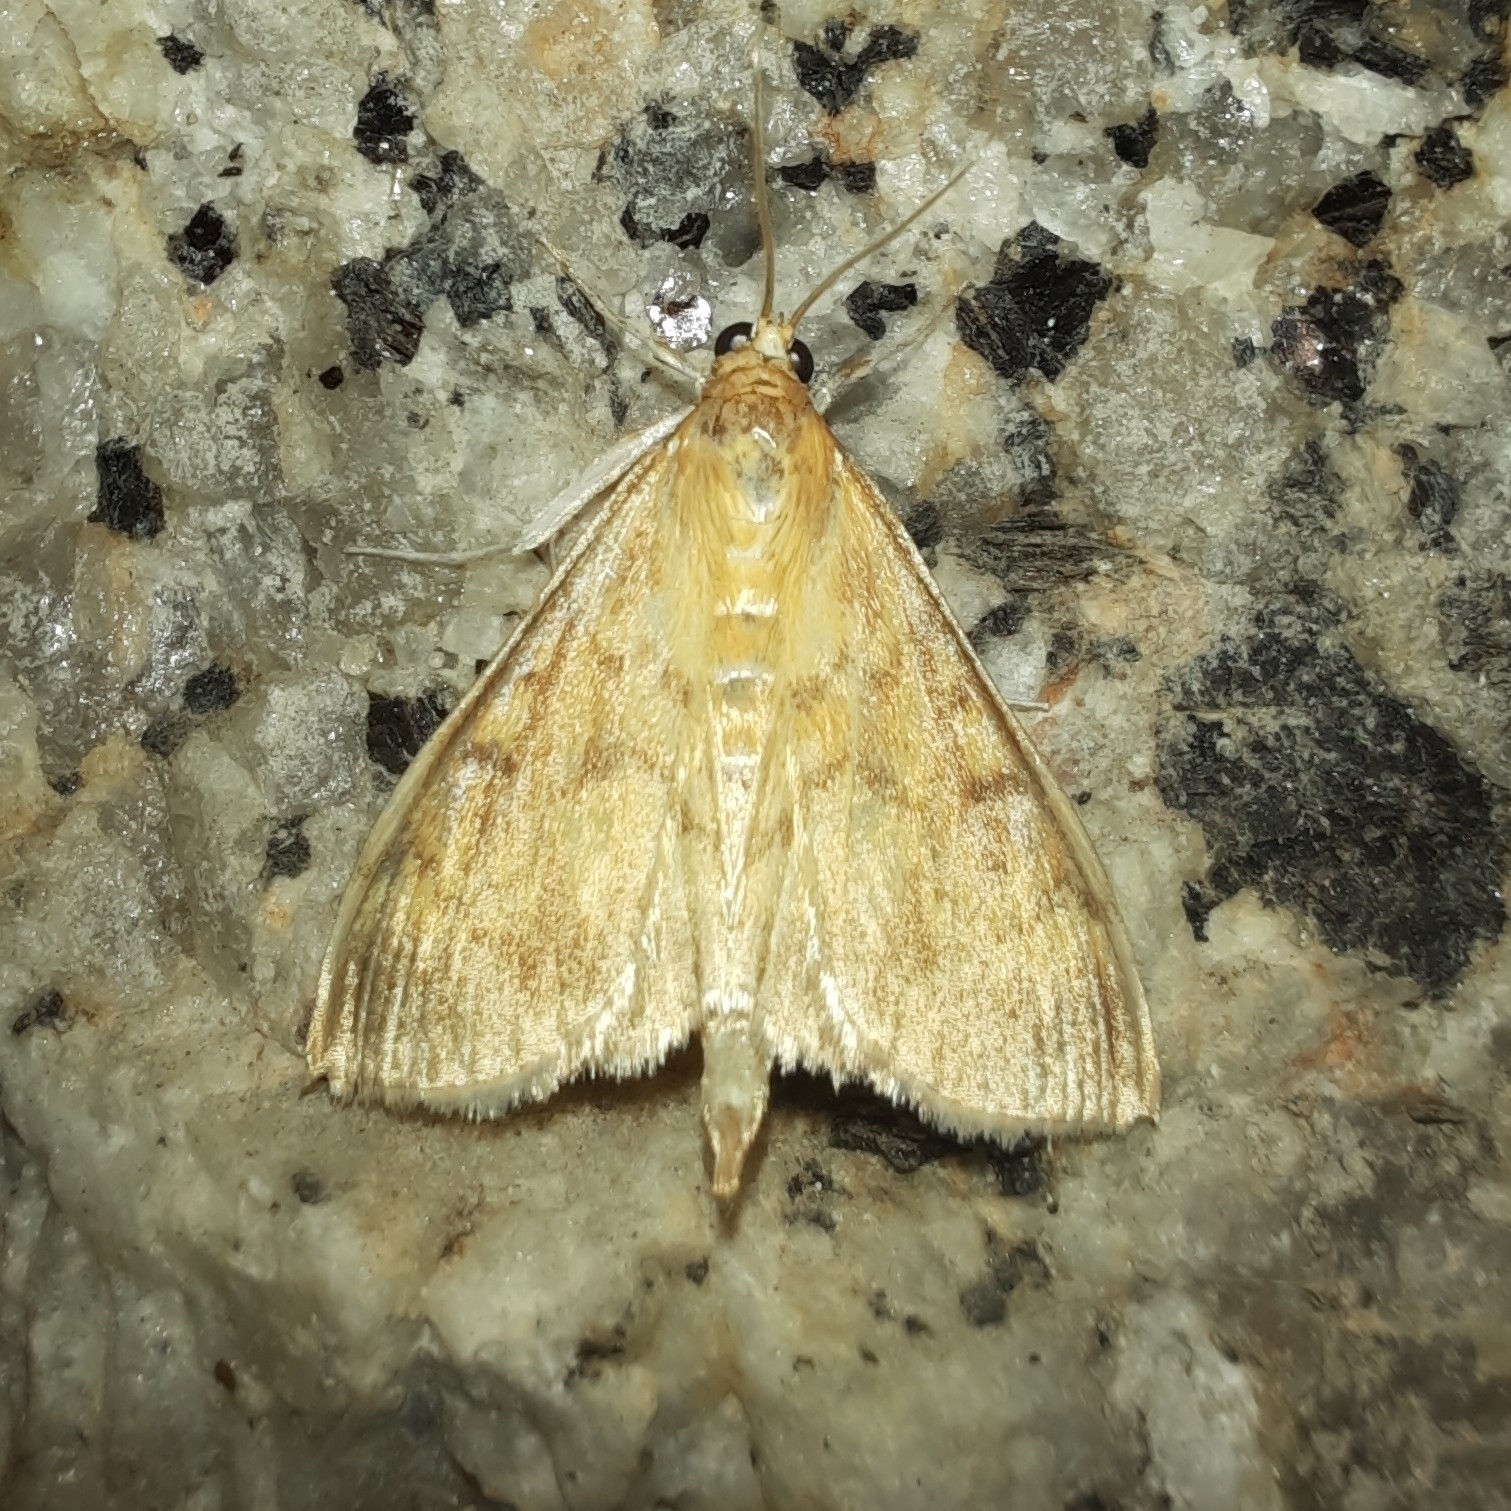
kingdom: Animalia
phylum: Arthropoda
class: Insecta
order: Lepidoptera
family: Crambidae
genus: Ostrinia
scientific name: Ostrinia nubilalis
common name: European corn borer
